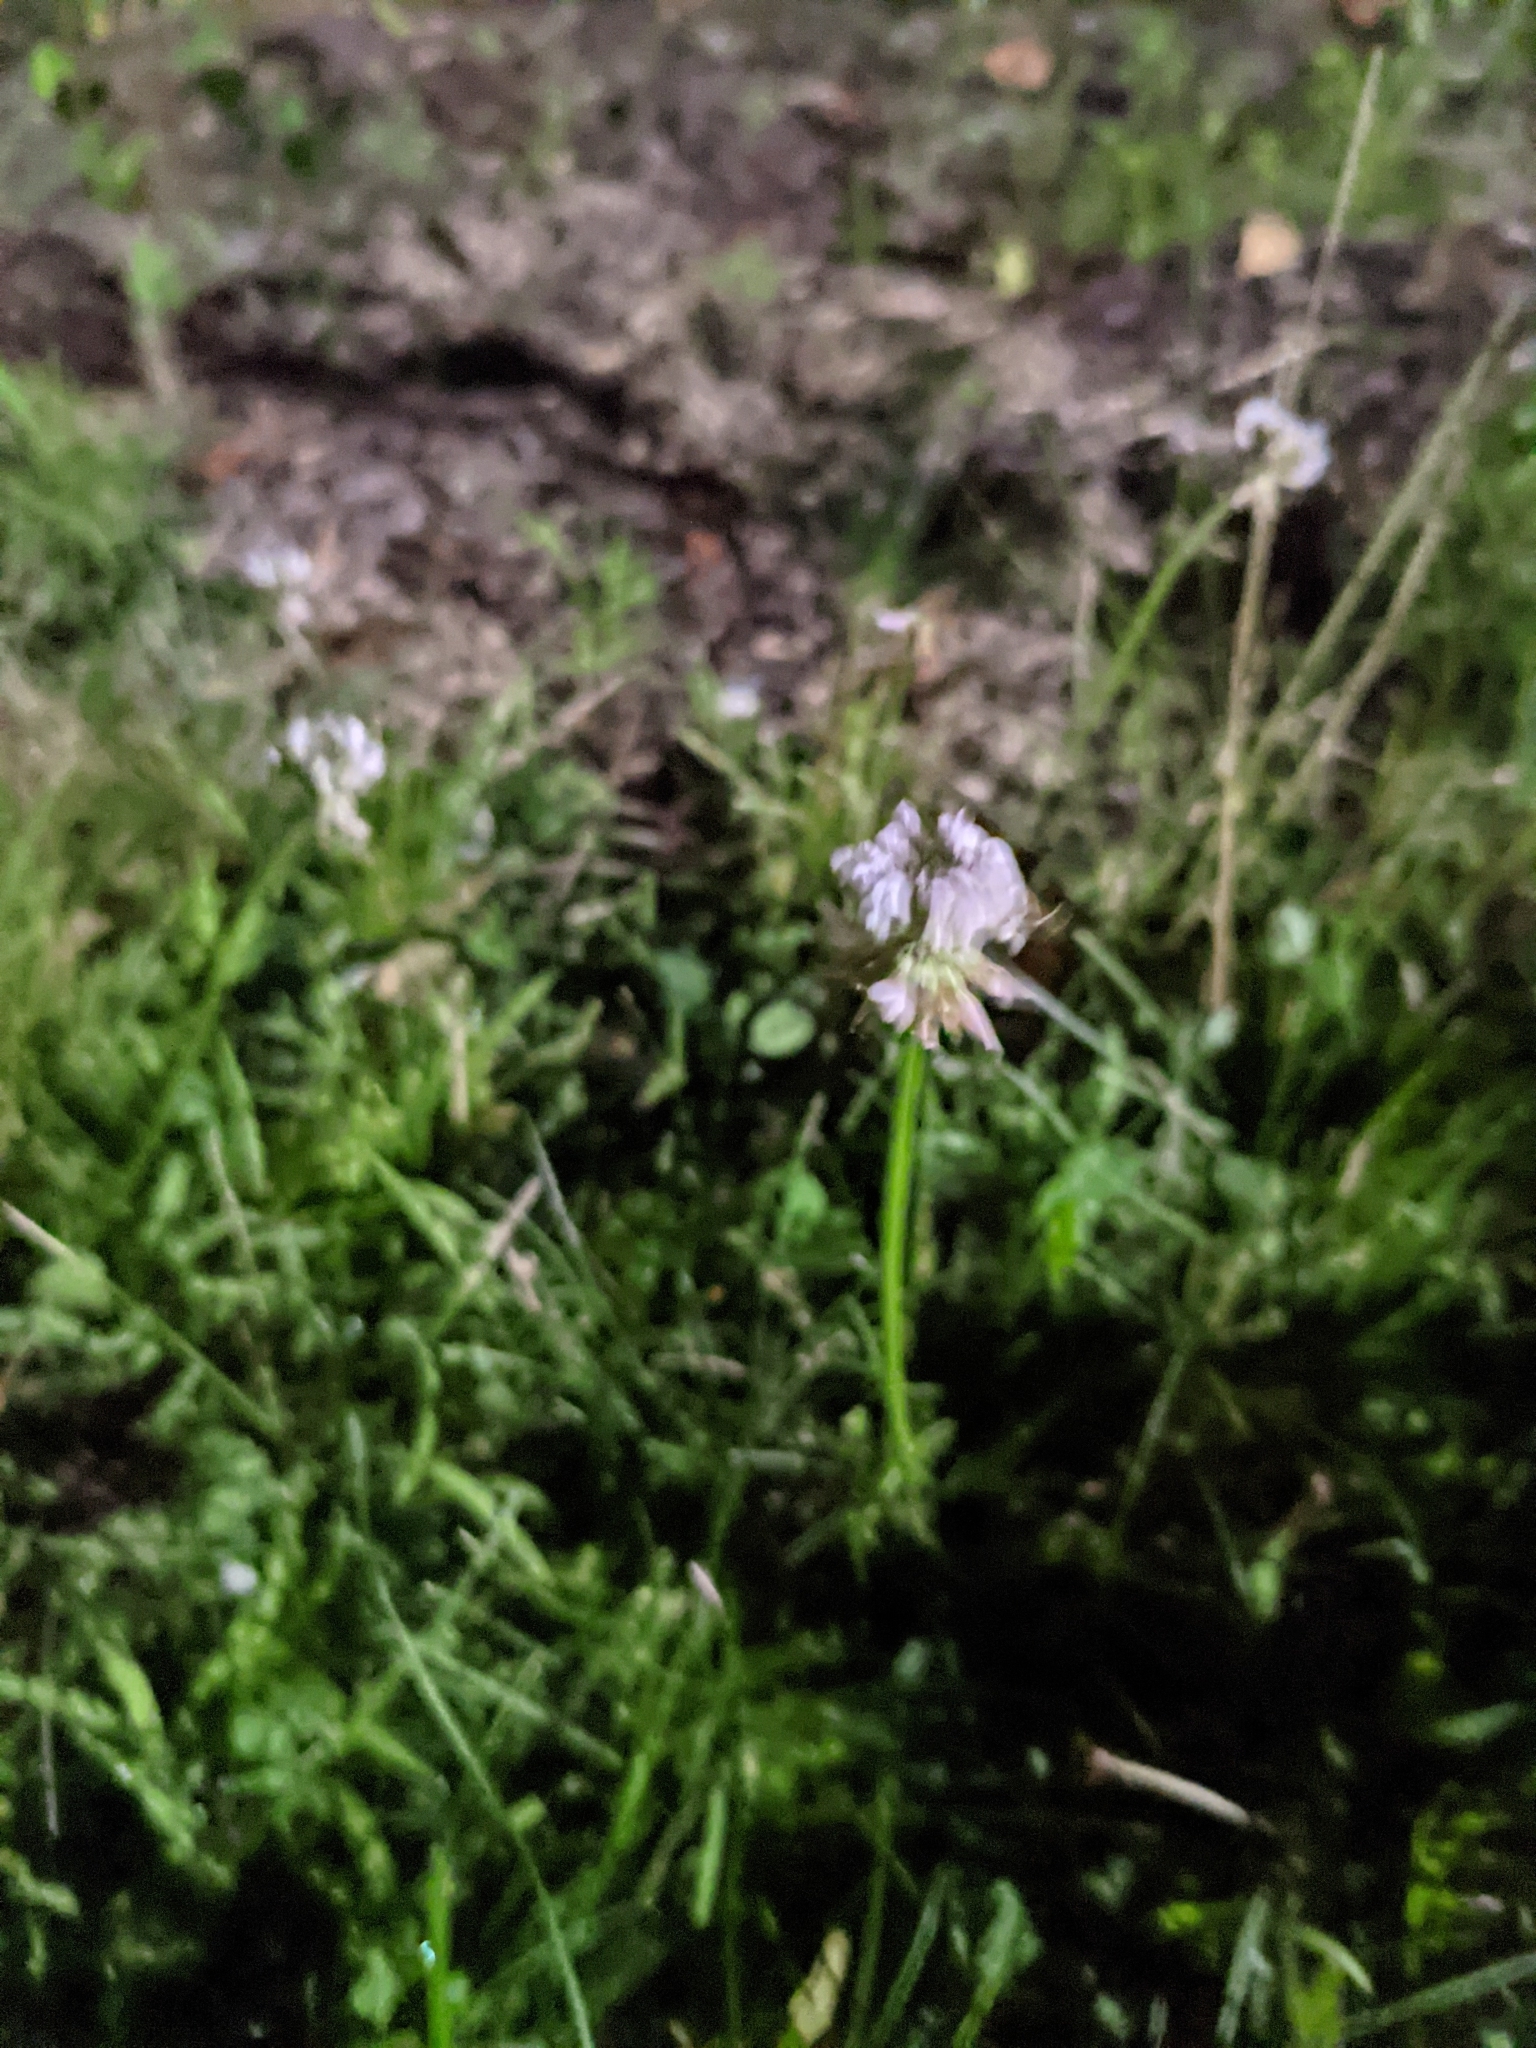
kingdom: Plantae
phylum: Tracheophyta
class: Magnoliopsida
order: Fabales
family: Fabaceae
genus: Trifolium
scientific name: Trifolium repens
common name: White clover
